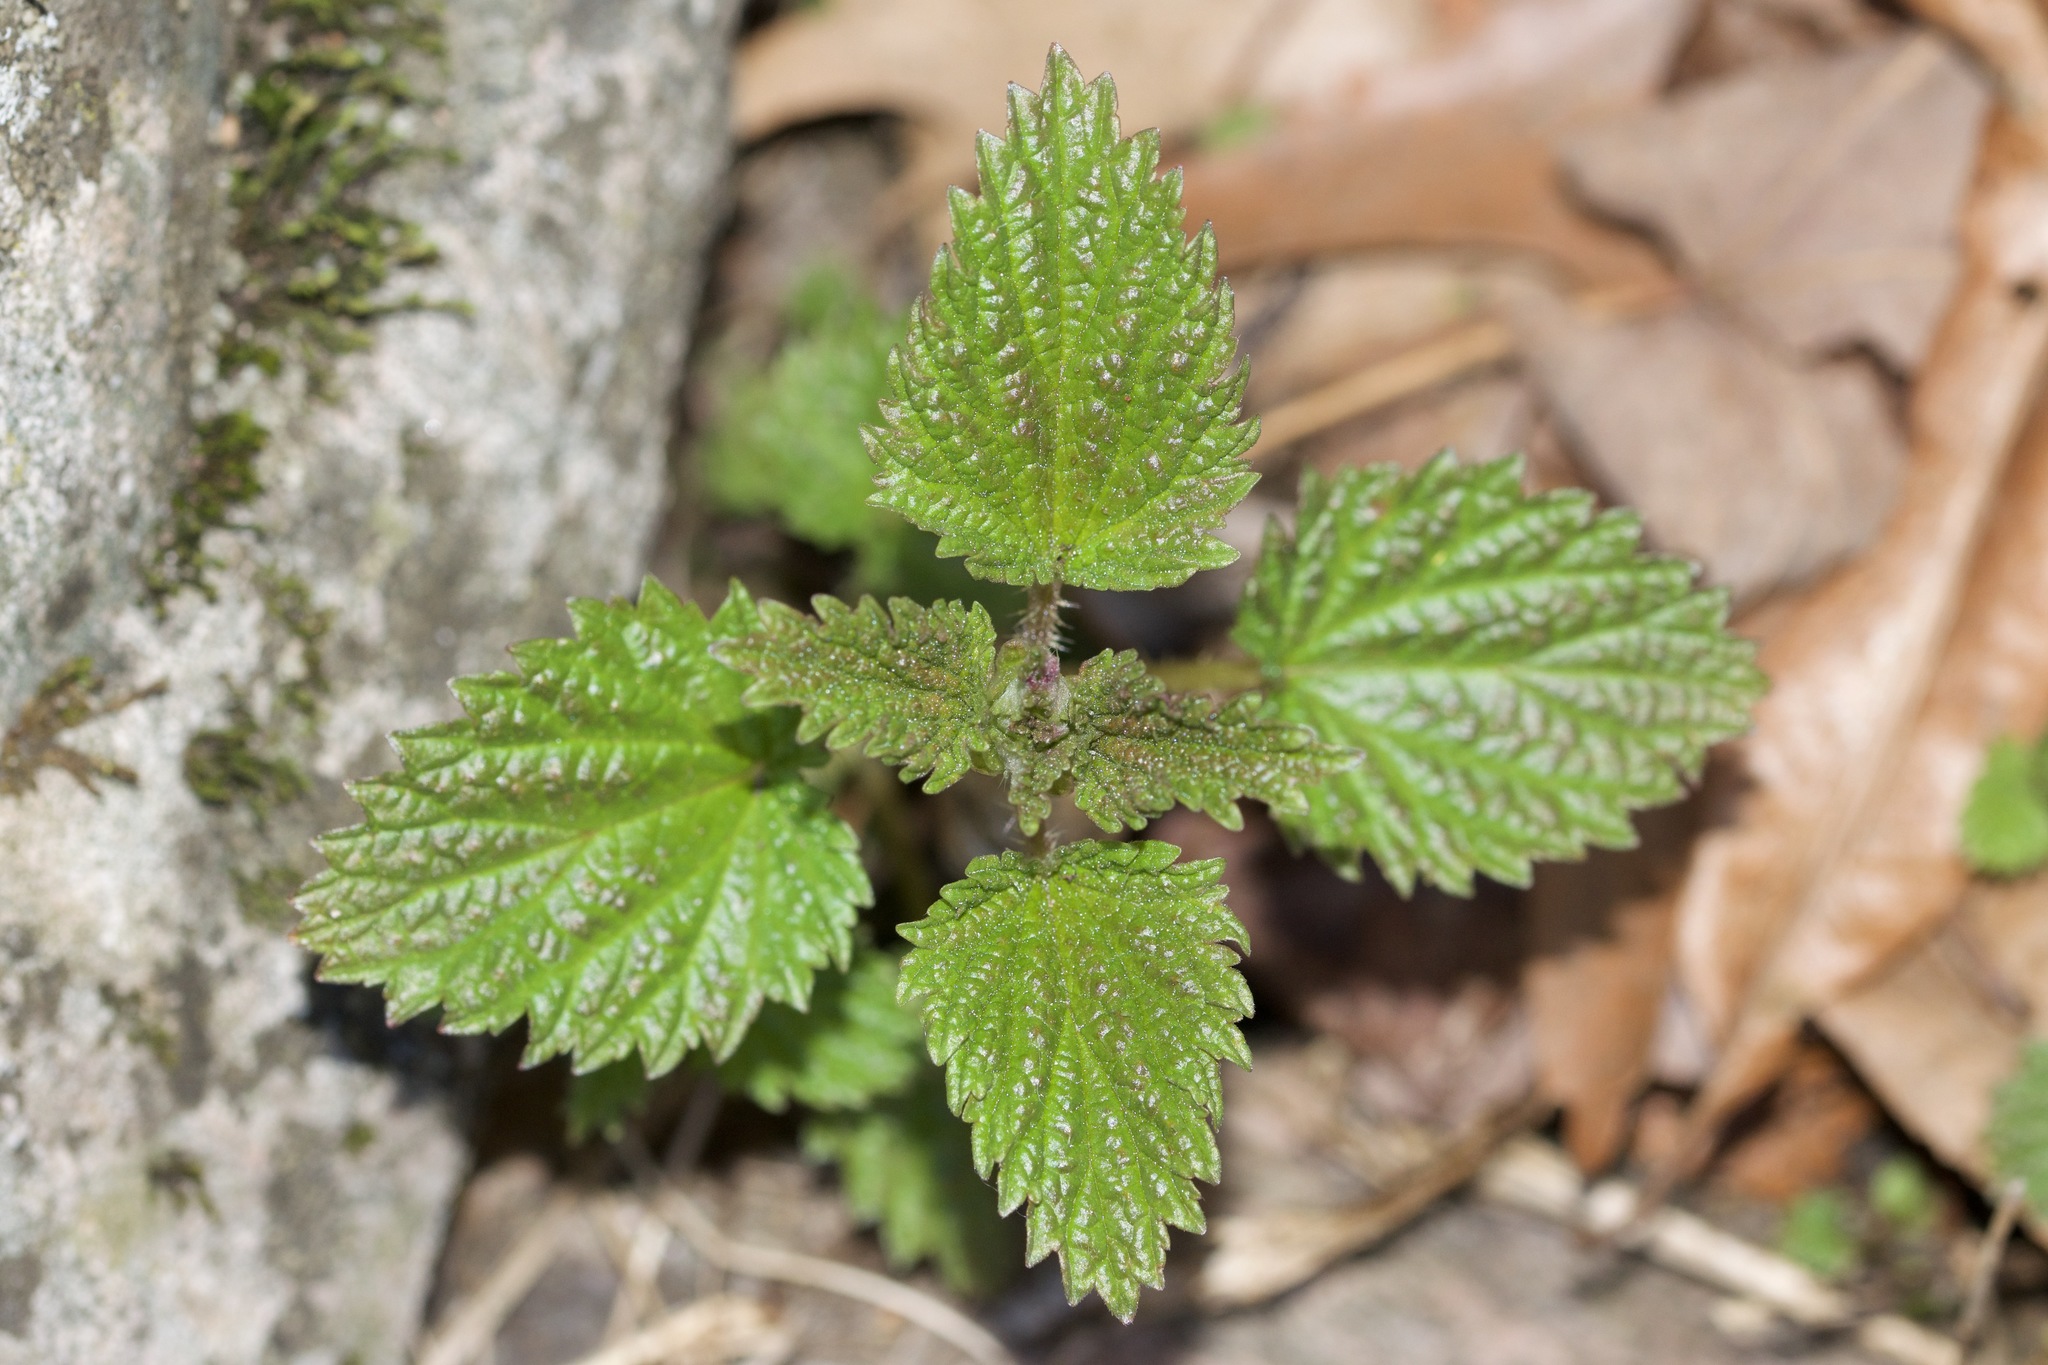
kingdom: Plantae
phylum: Tracheophyta
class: Magnoliopsida
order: Rosales
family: Urticaceae
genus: Urtica
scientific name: Urtica dioica
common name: Common nettle
